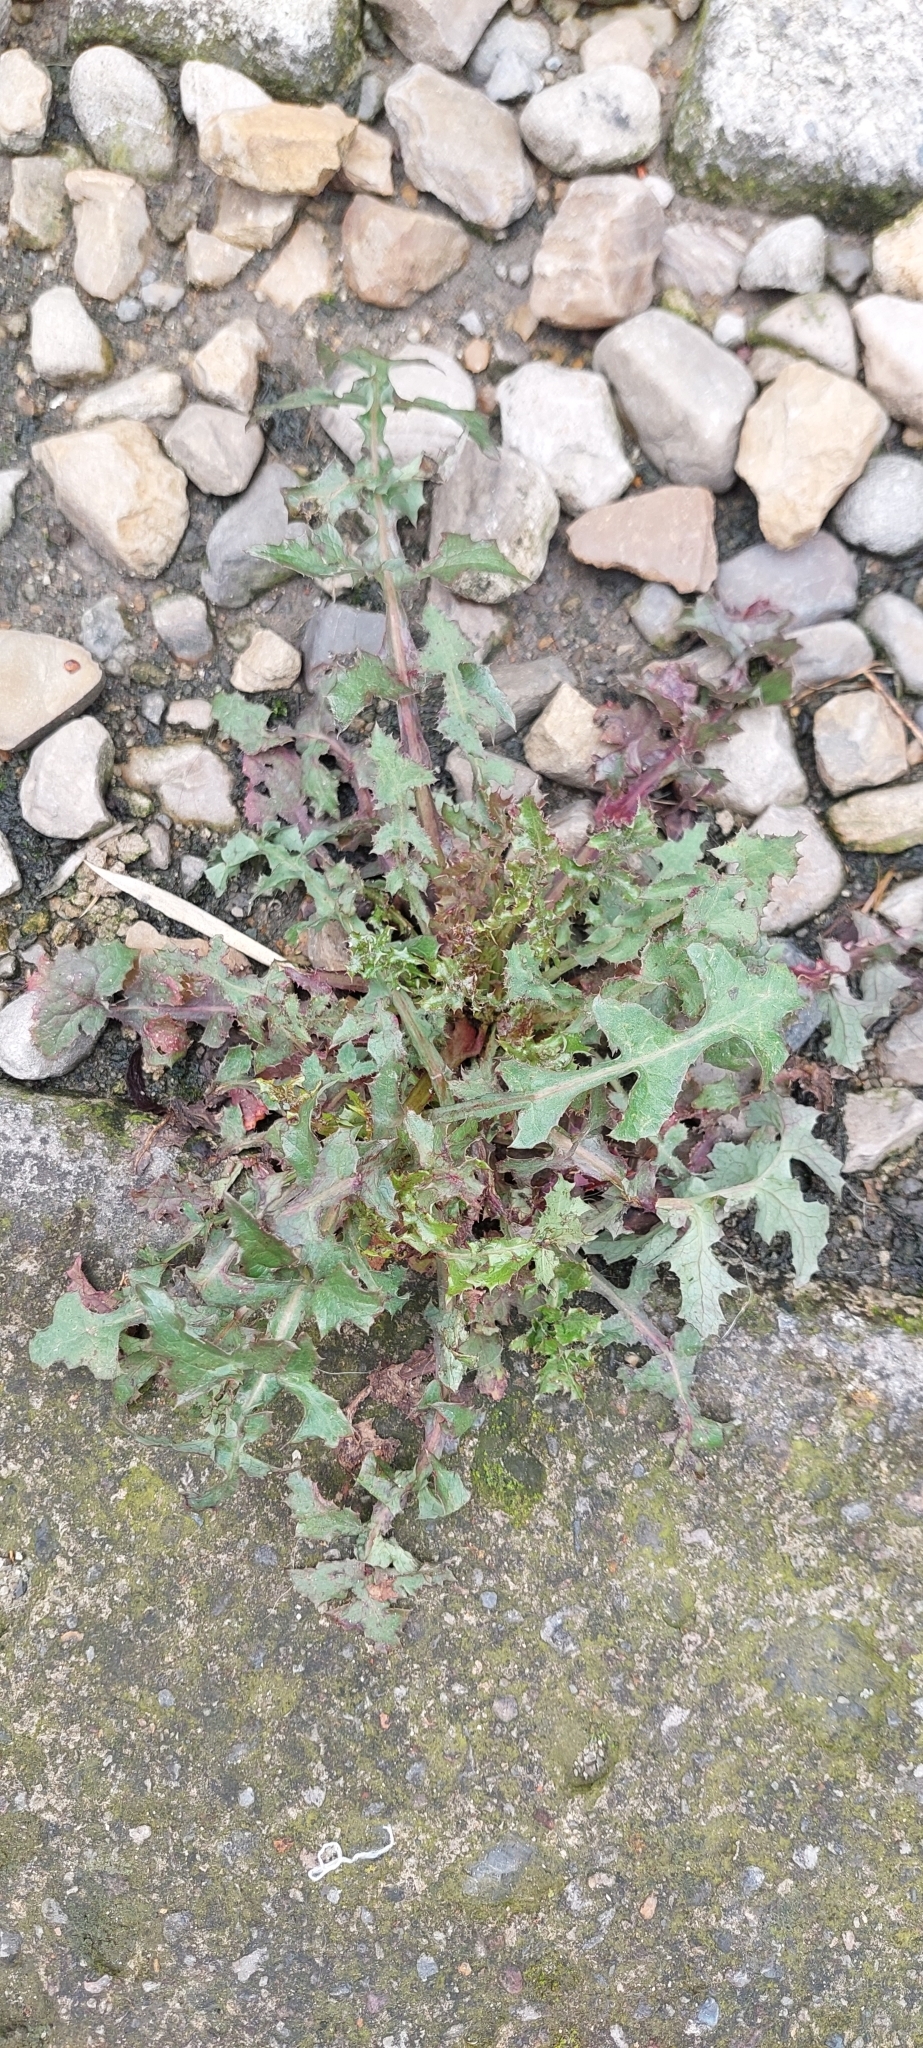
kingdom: Plantae
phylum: Tracheophyta
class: Magnoliopsida
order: Asterales
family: Asteraceae
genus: Sonchus
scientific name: Sonchus oleraceus
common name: Common sowthistle
